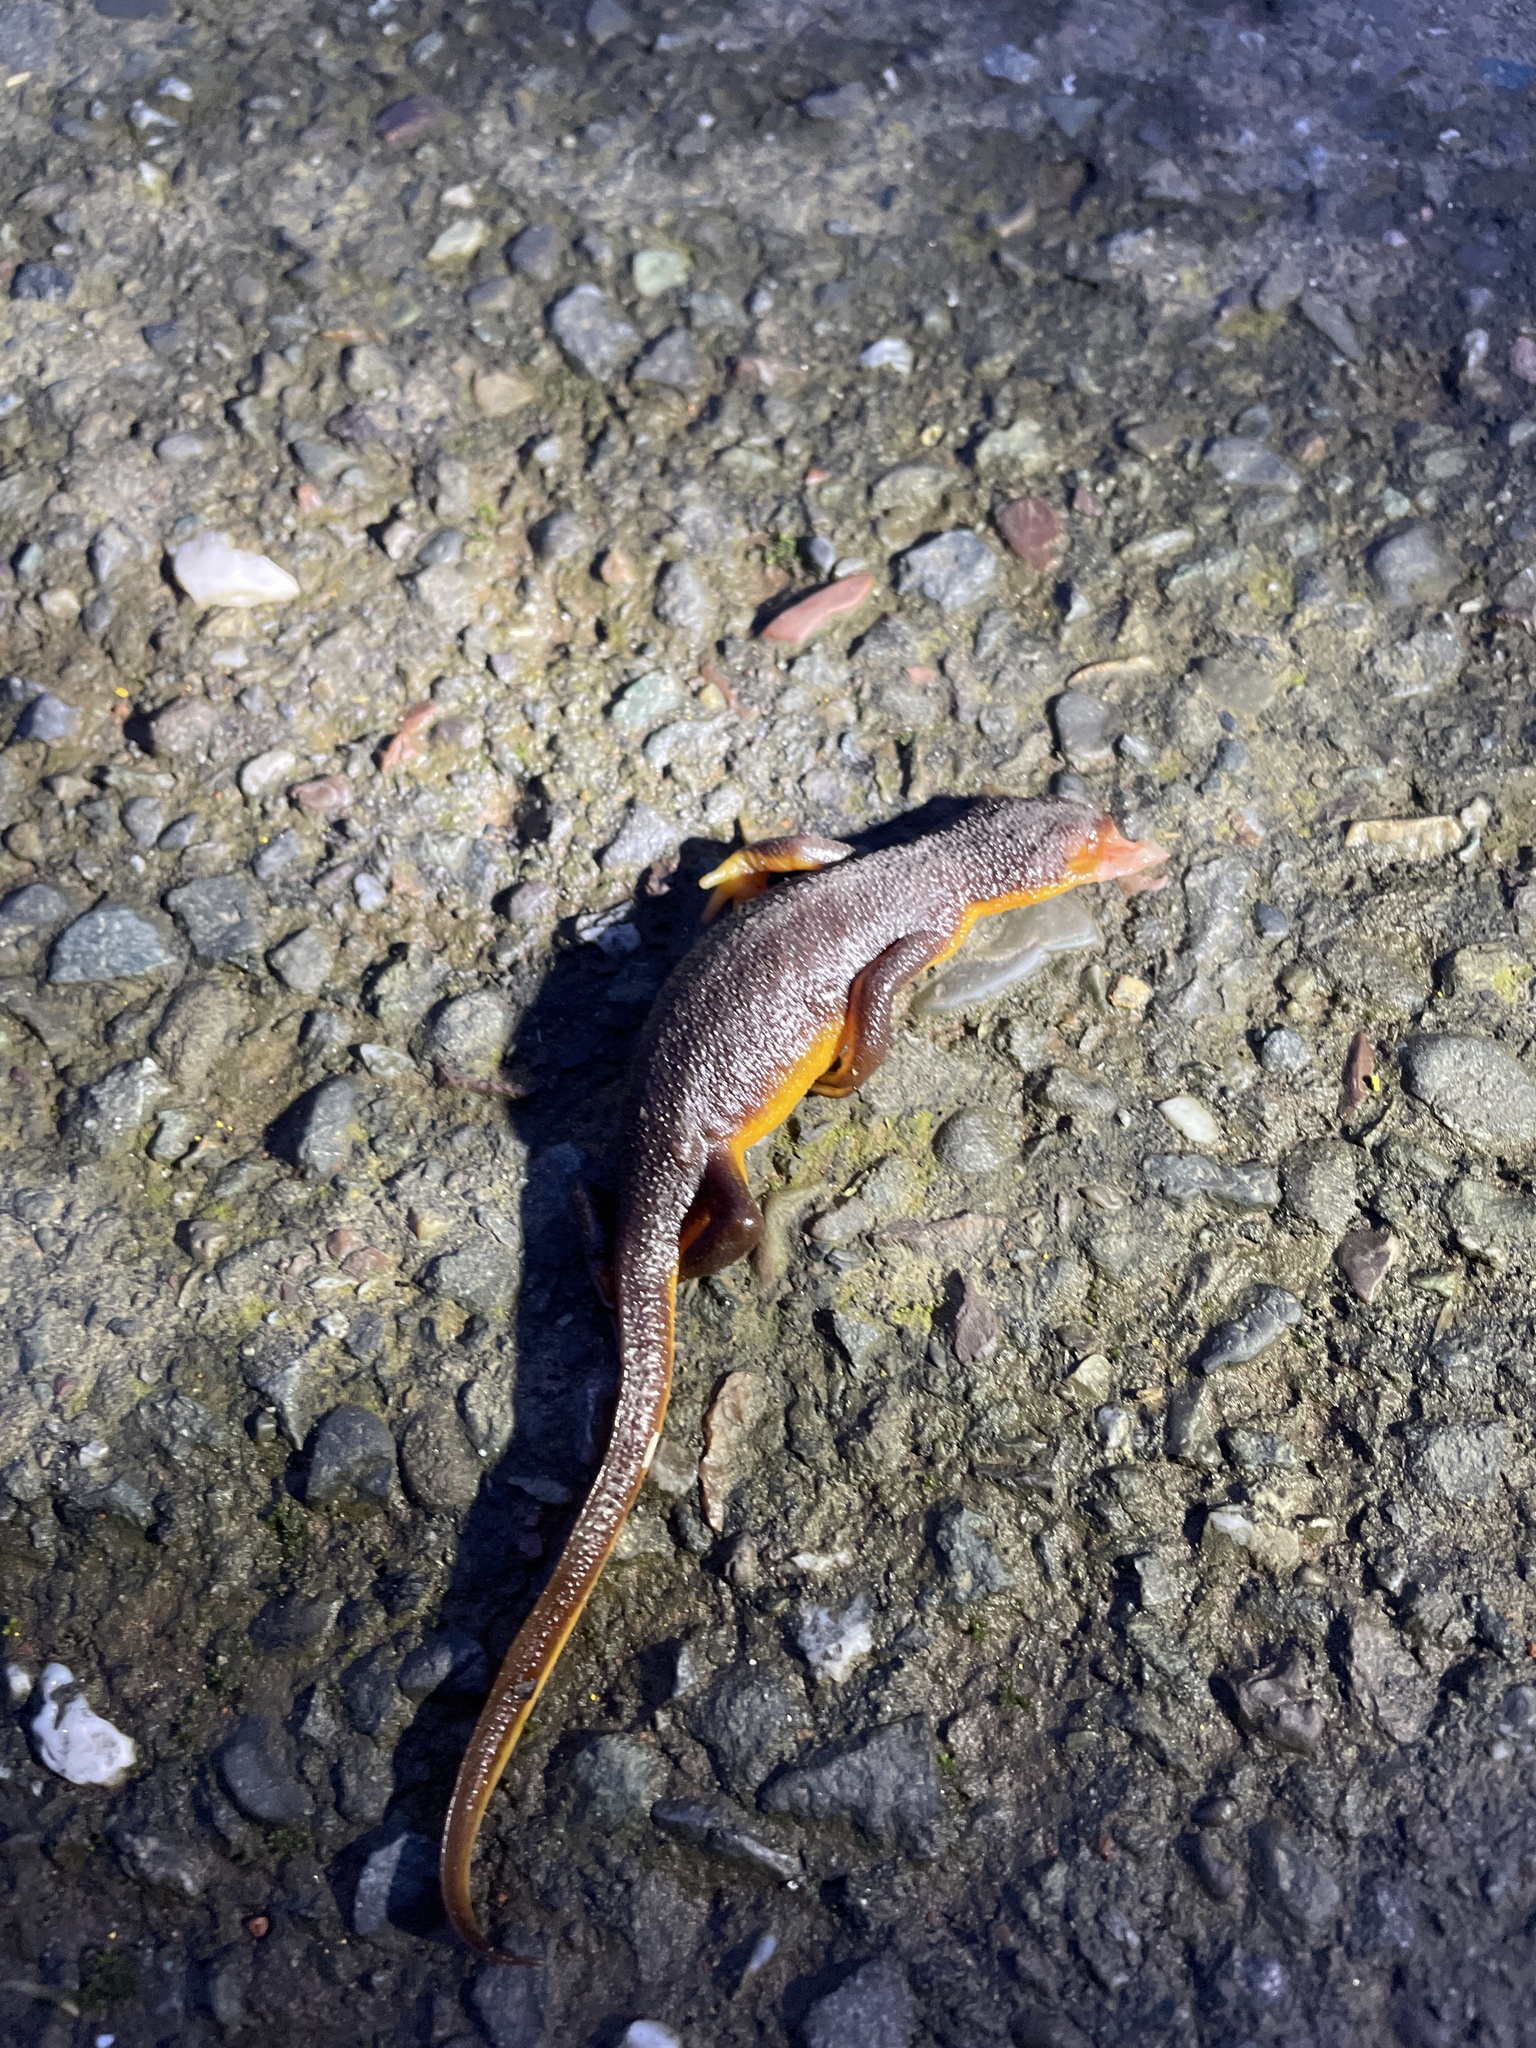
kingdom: Animalia
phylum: Chordata
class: Amphibia
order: Caudata
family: Salamandridae
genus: Taricha
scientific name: Taricha
